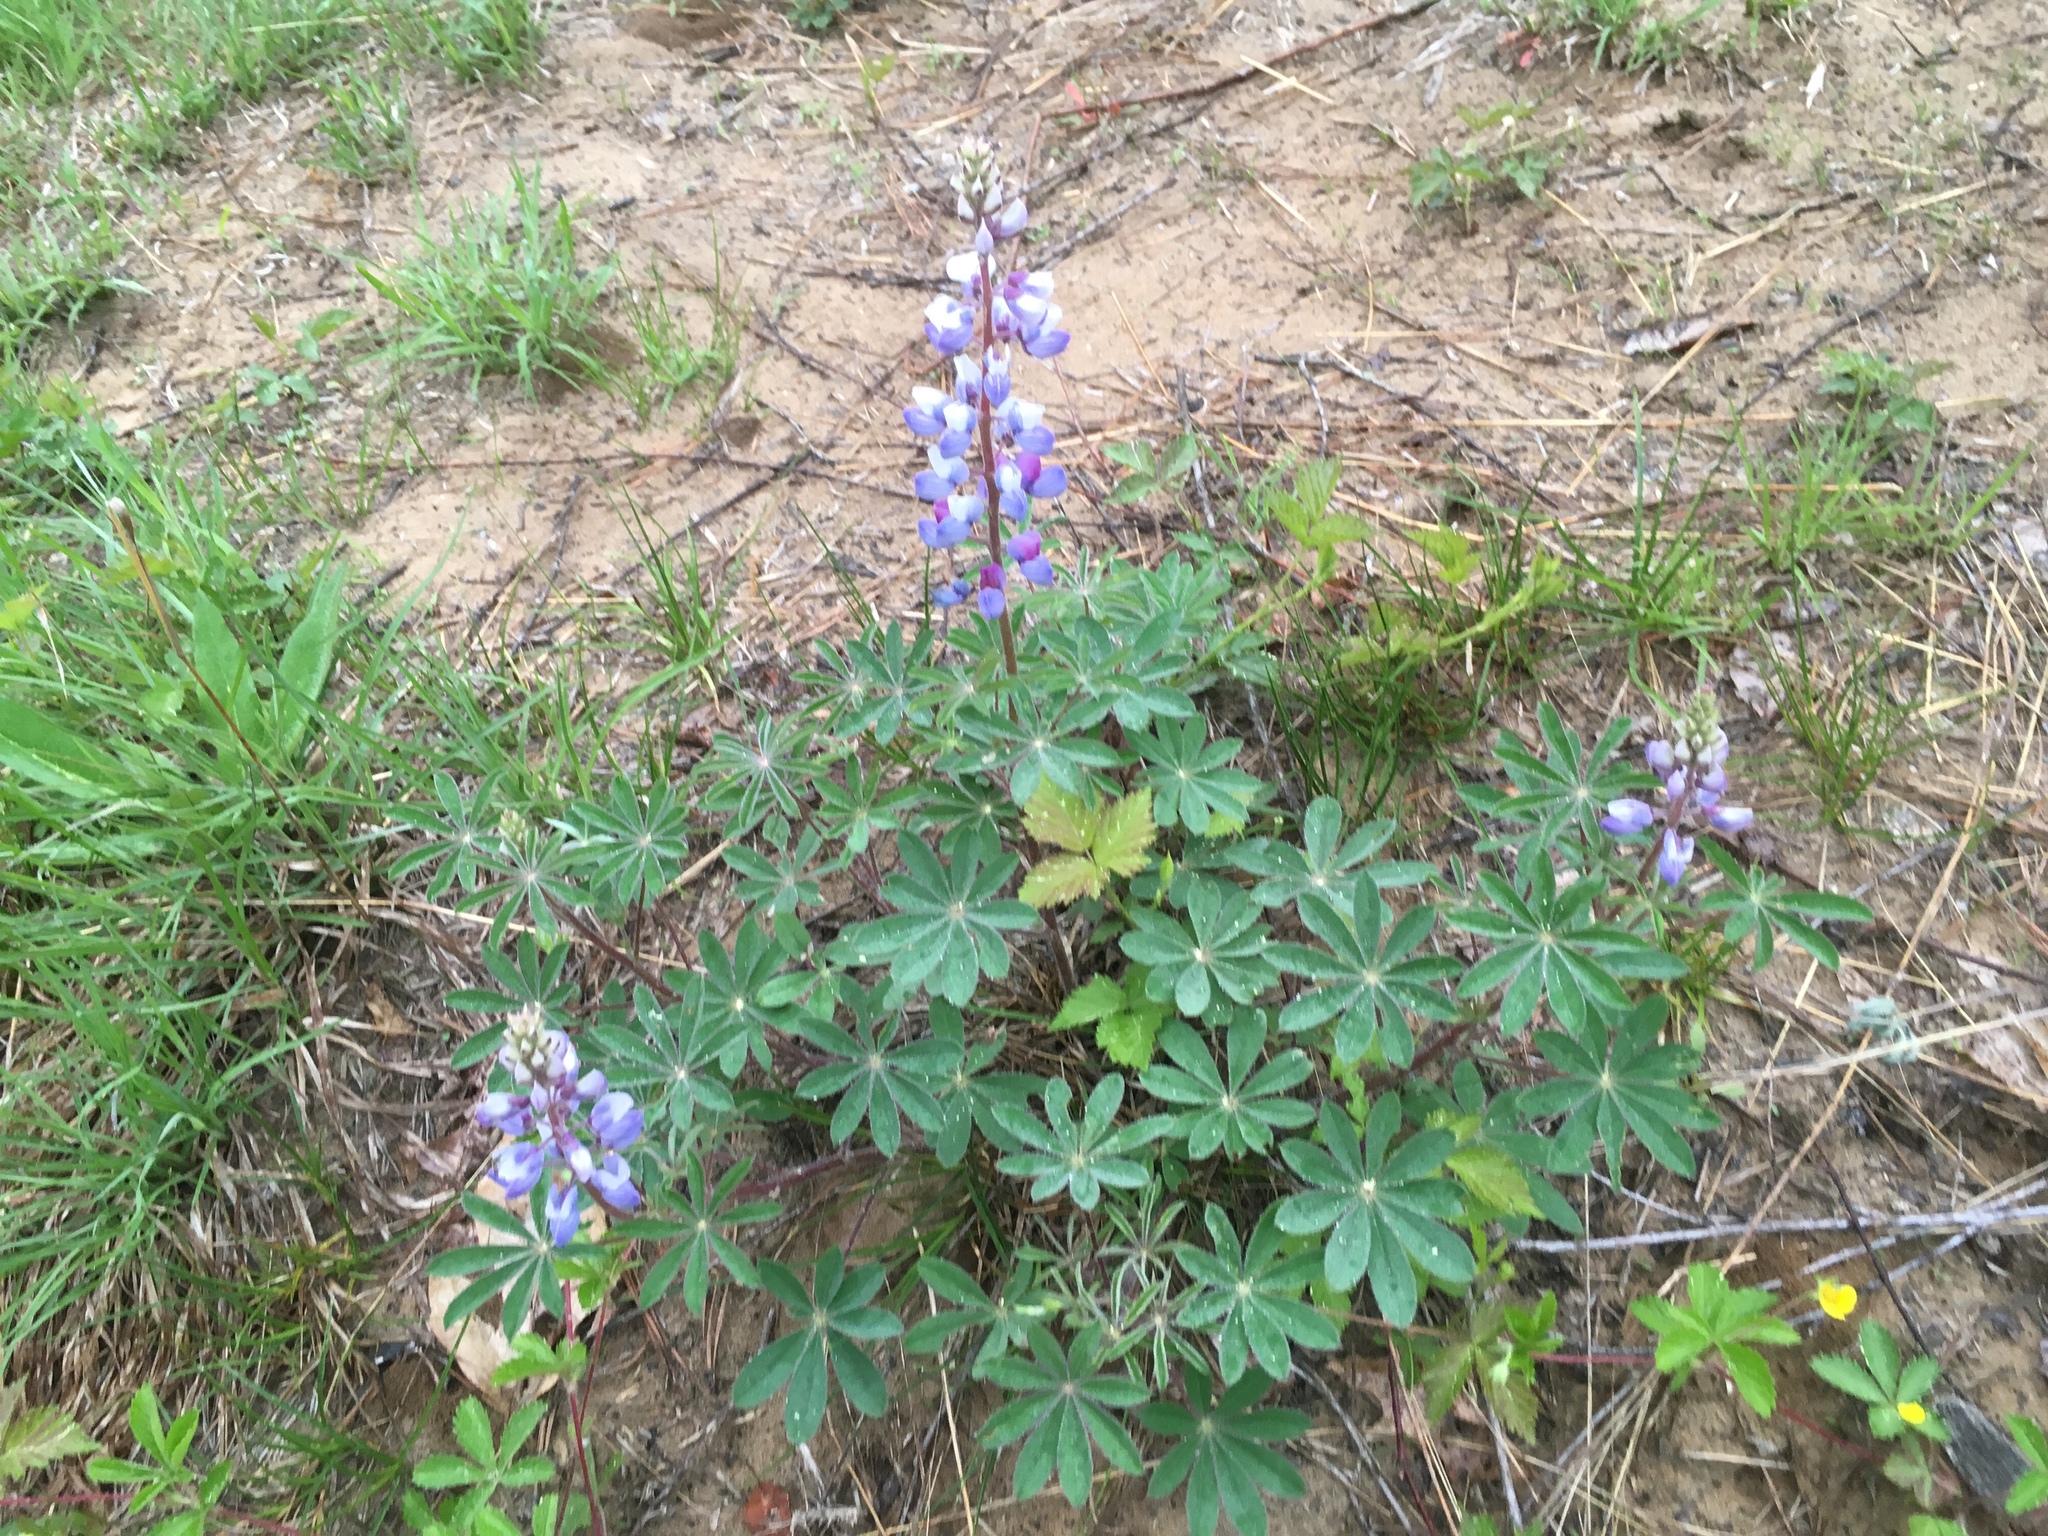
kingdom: Plantae
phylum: Tracheophyta
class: Magnoliopsida
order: Fabales
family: Fabaceae
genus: Lupinus
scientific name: Lupinus perennis
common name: Sundial lupine
